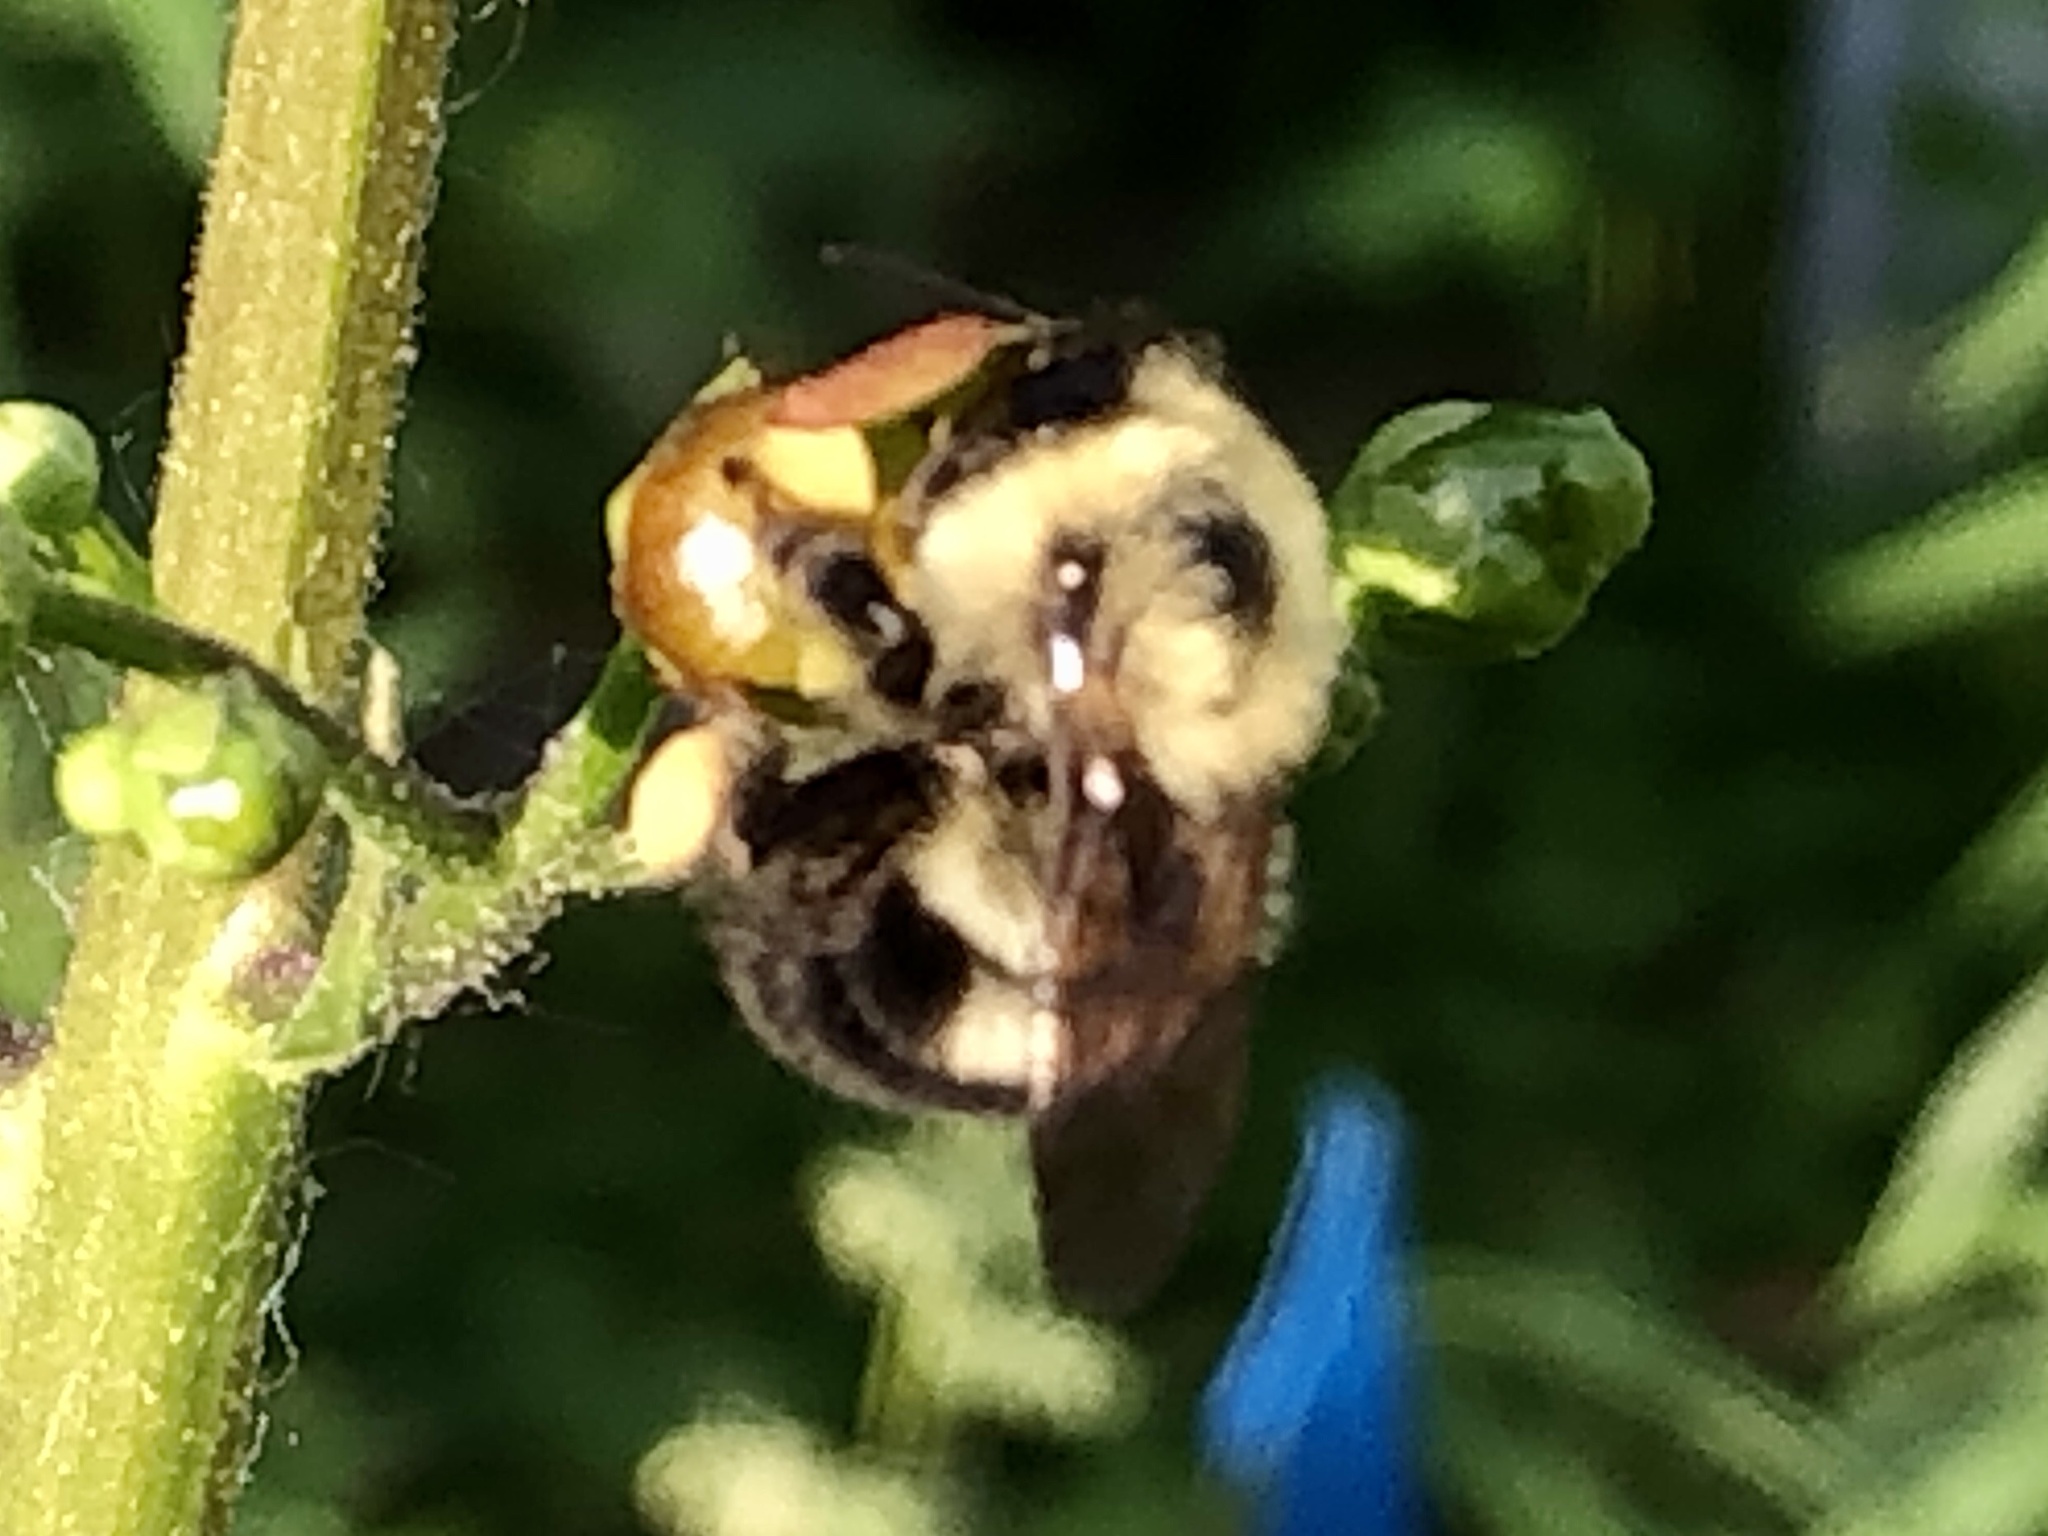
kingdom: Animalia
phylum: Arthropoda
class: Insecta
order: Hymenoptera
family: Apidae
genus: Bombus
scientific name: Bombus bimaculatus
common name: Two-spotted bumble bee
